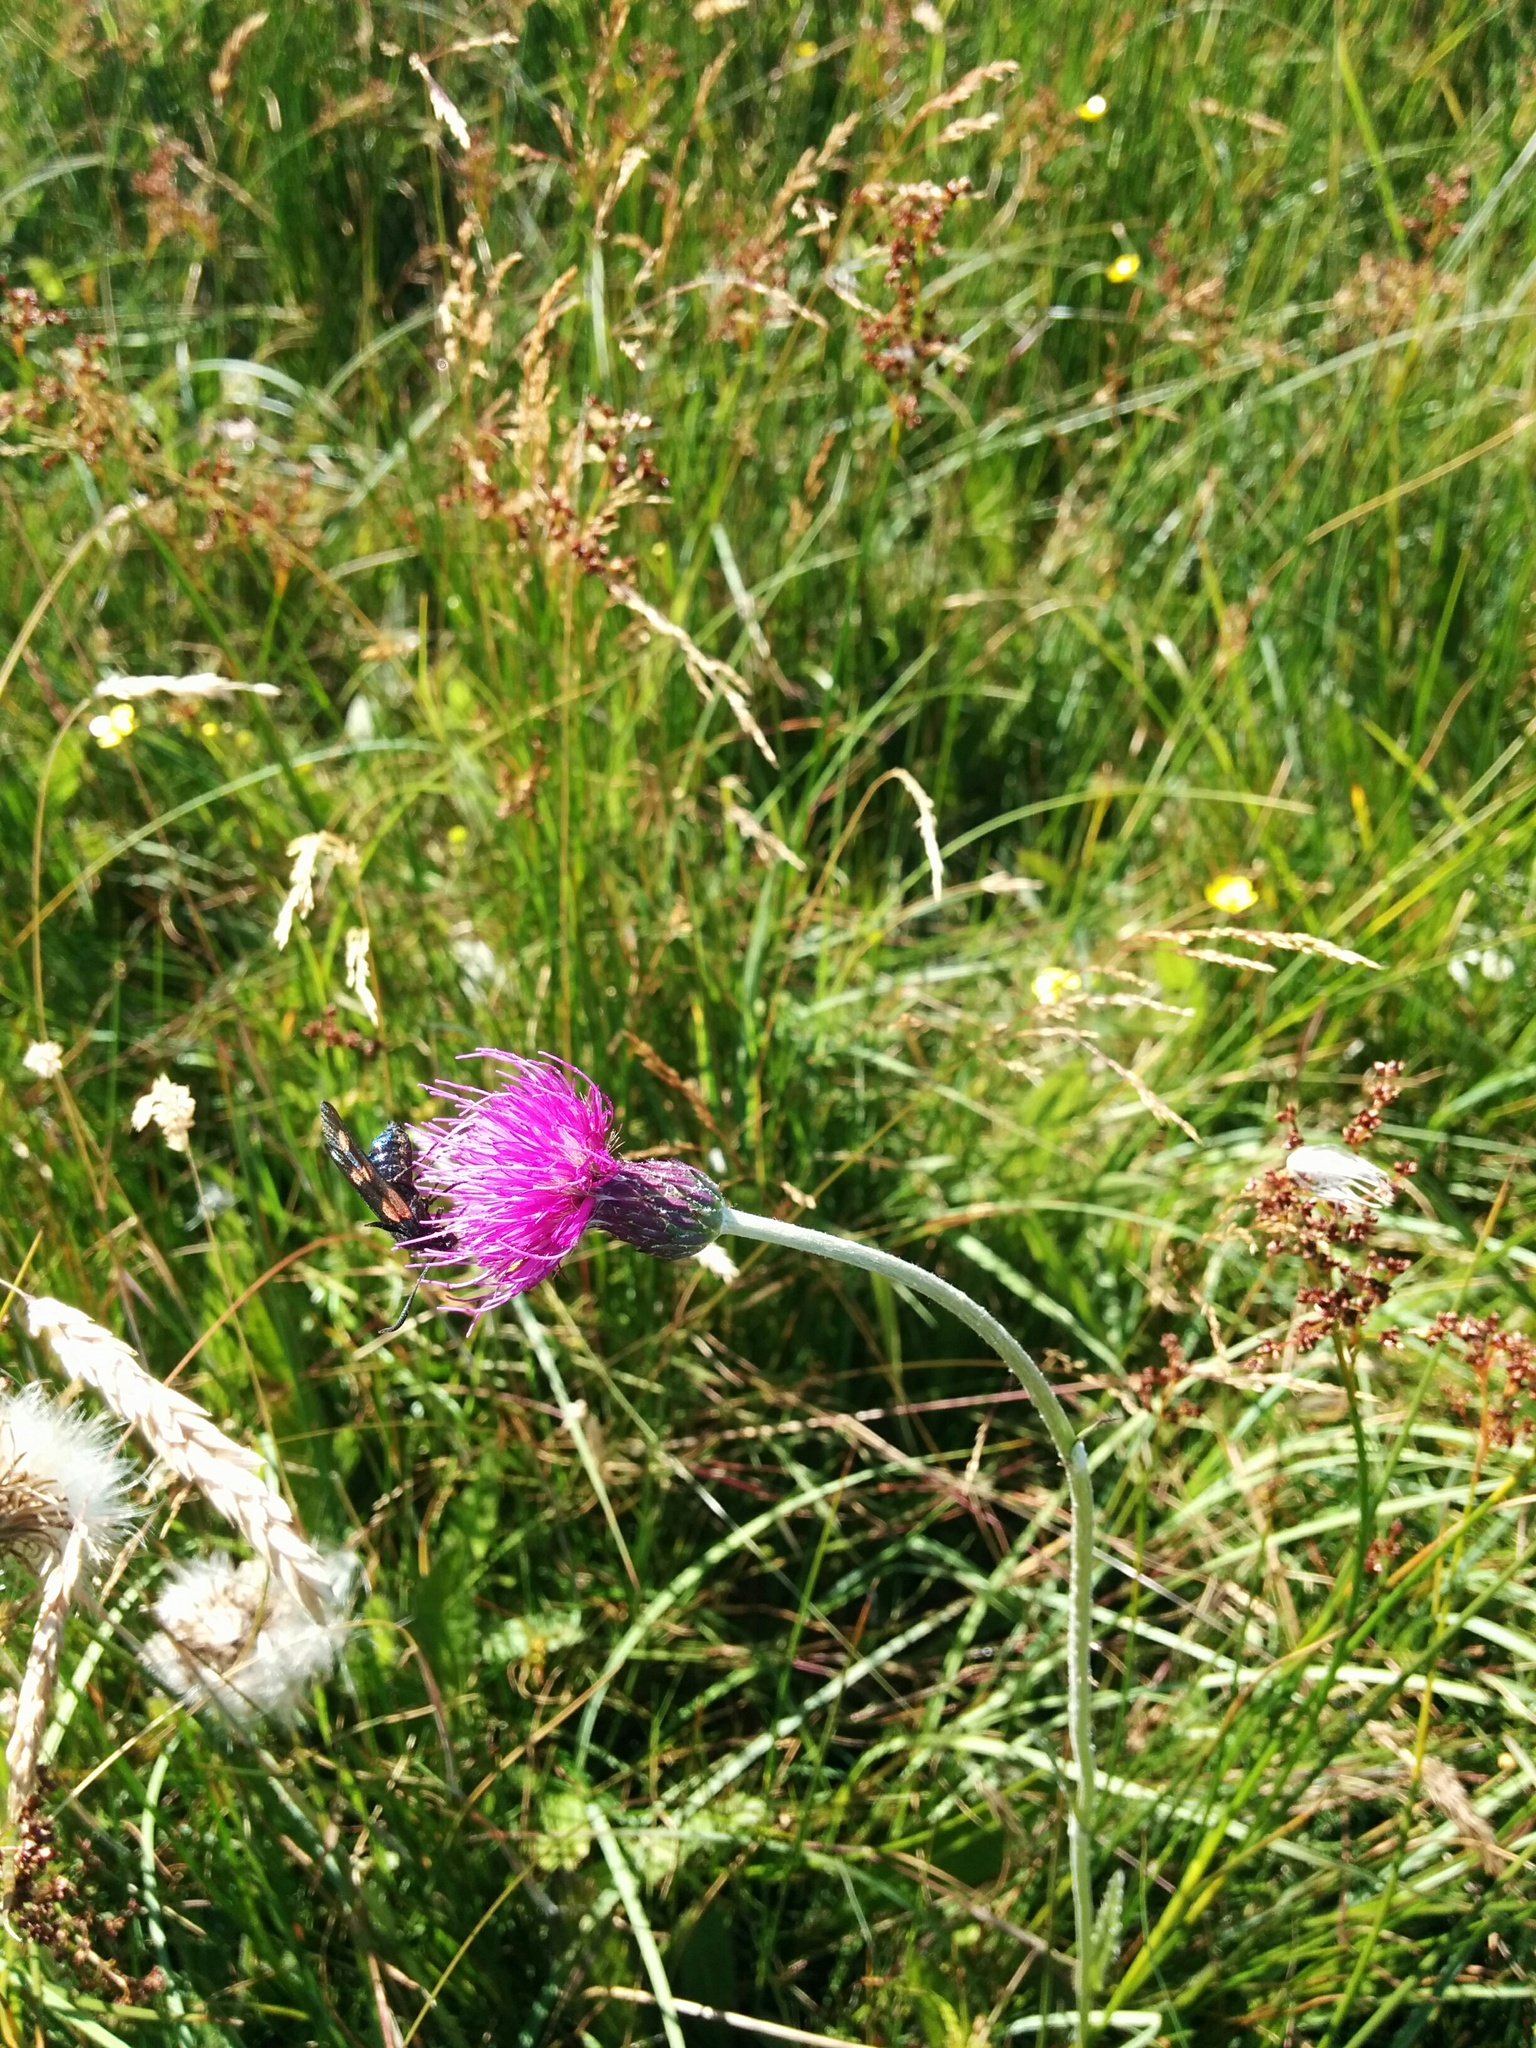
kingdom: Plantae
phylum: Tracheophyta
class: Magnoliopsida
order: Asterales
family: Asteraceae
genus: Cirsium
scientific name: Cirsium dissectum
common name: Meadow thistle
